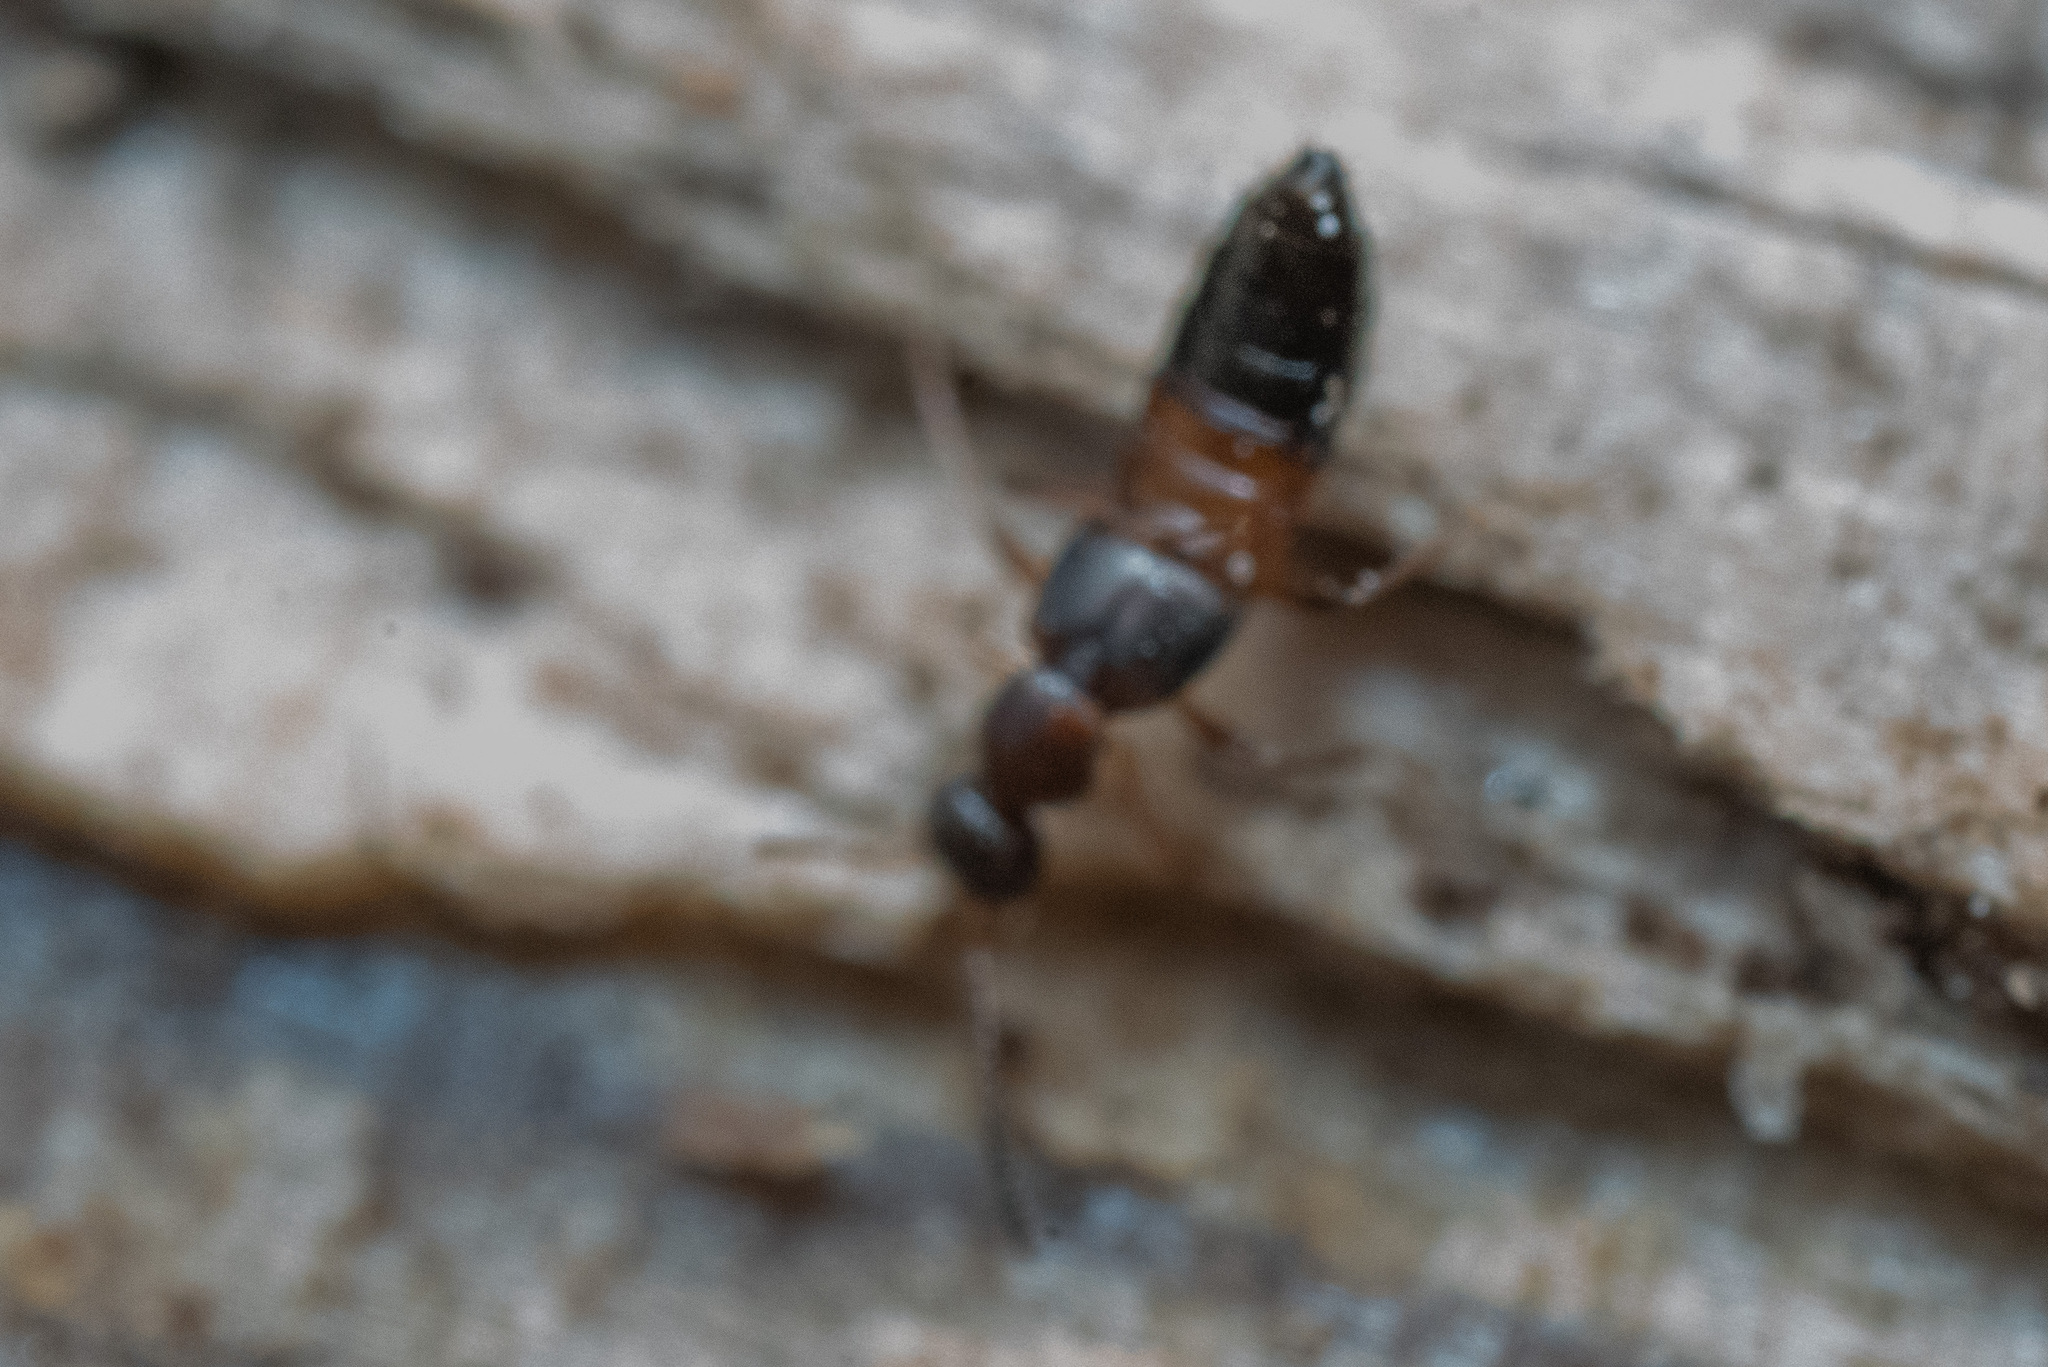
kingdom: Animalia
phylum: Arthropoda
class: Insecta
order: Coleoptera
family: Staphylinidae
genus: Meronera
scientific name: Meronera venustula
